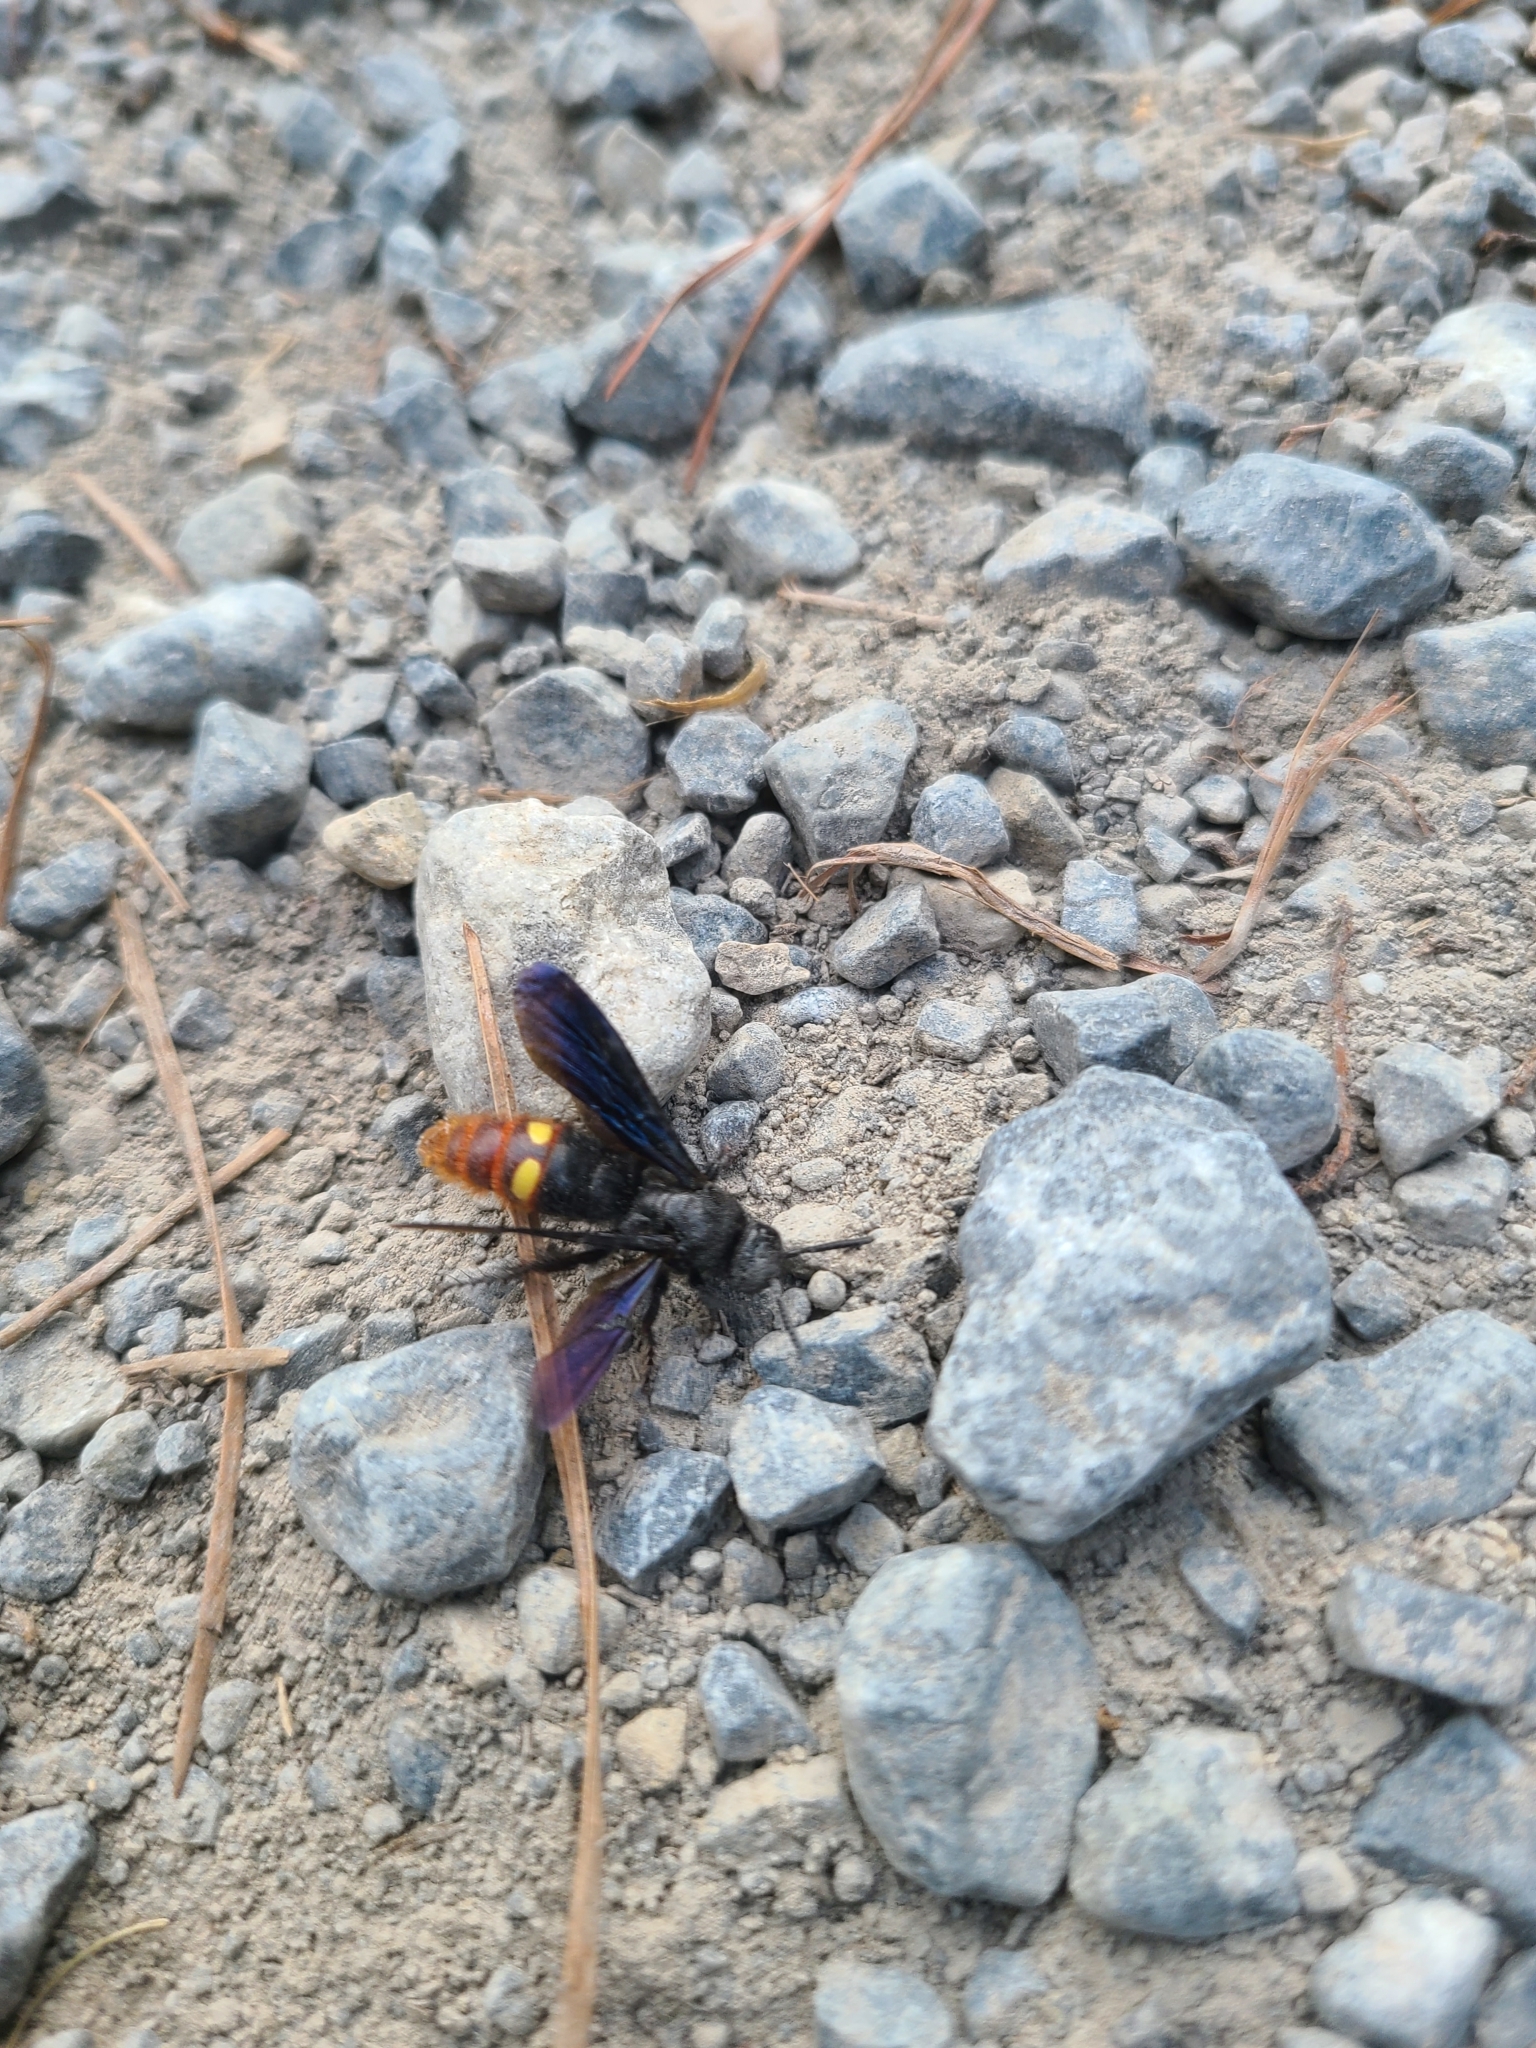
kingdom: Animalia
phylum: Arthropoda
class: Insecta
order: Hymenoptera
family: Scoliidae
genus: Scolia
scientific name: Scolia dubia
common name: Blue-winged scoliid wasp
